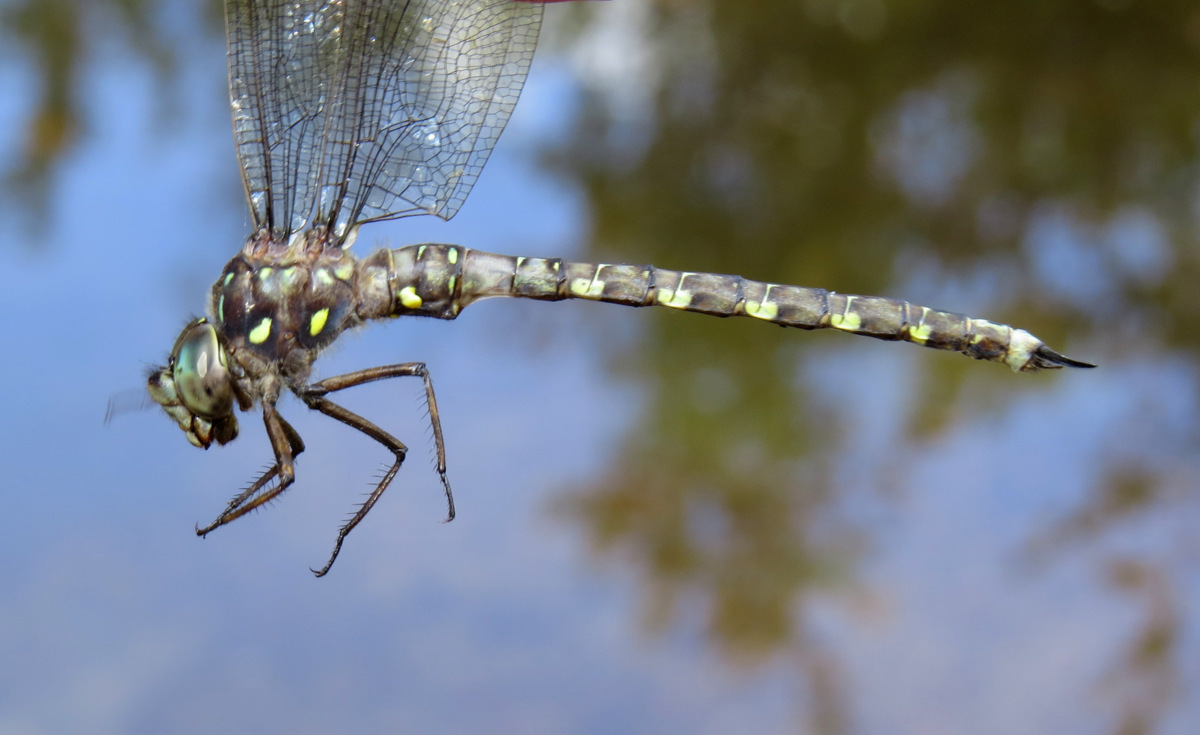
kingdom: Animalia
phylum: Arthropoda
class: Insecta
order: Odonata
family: Aeshnidae
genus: Boyeria
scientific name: Boyeria grafiana
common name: Ocellated darner
